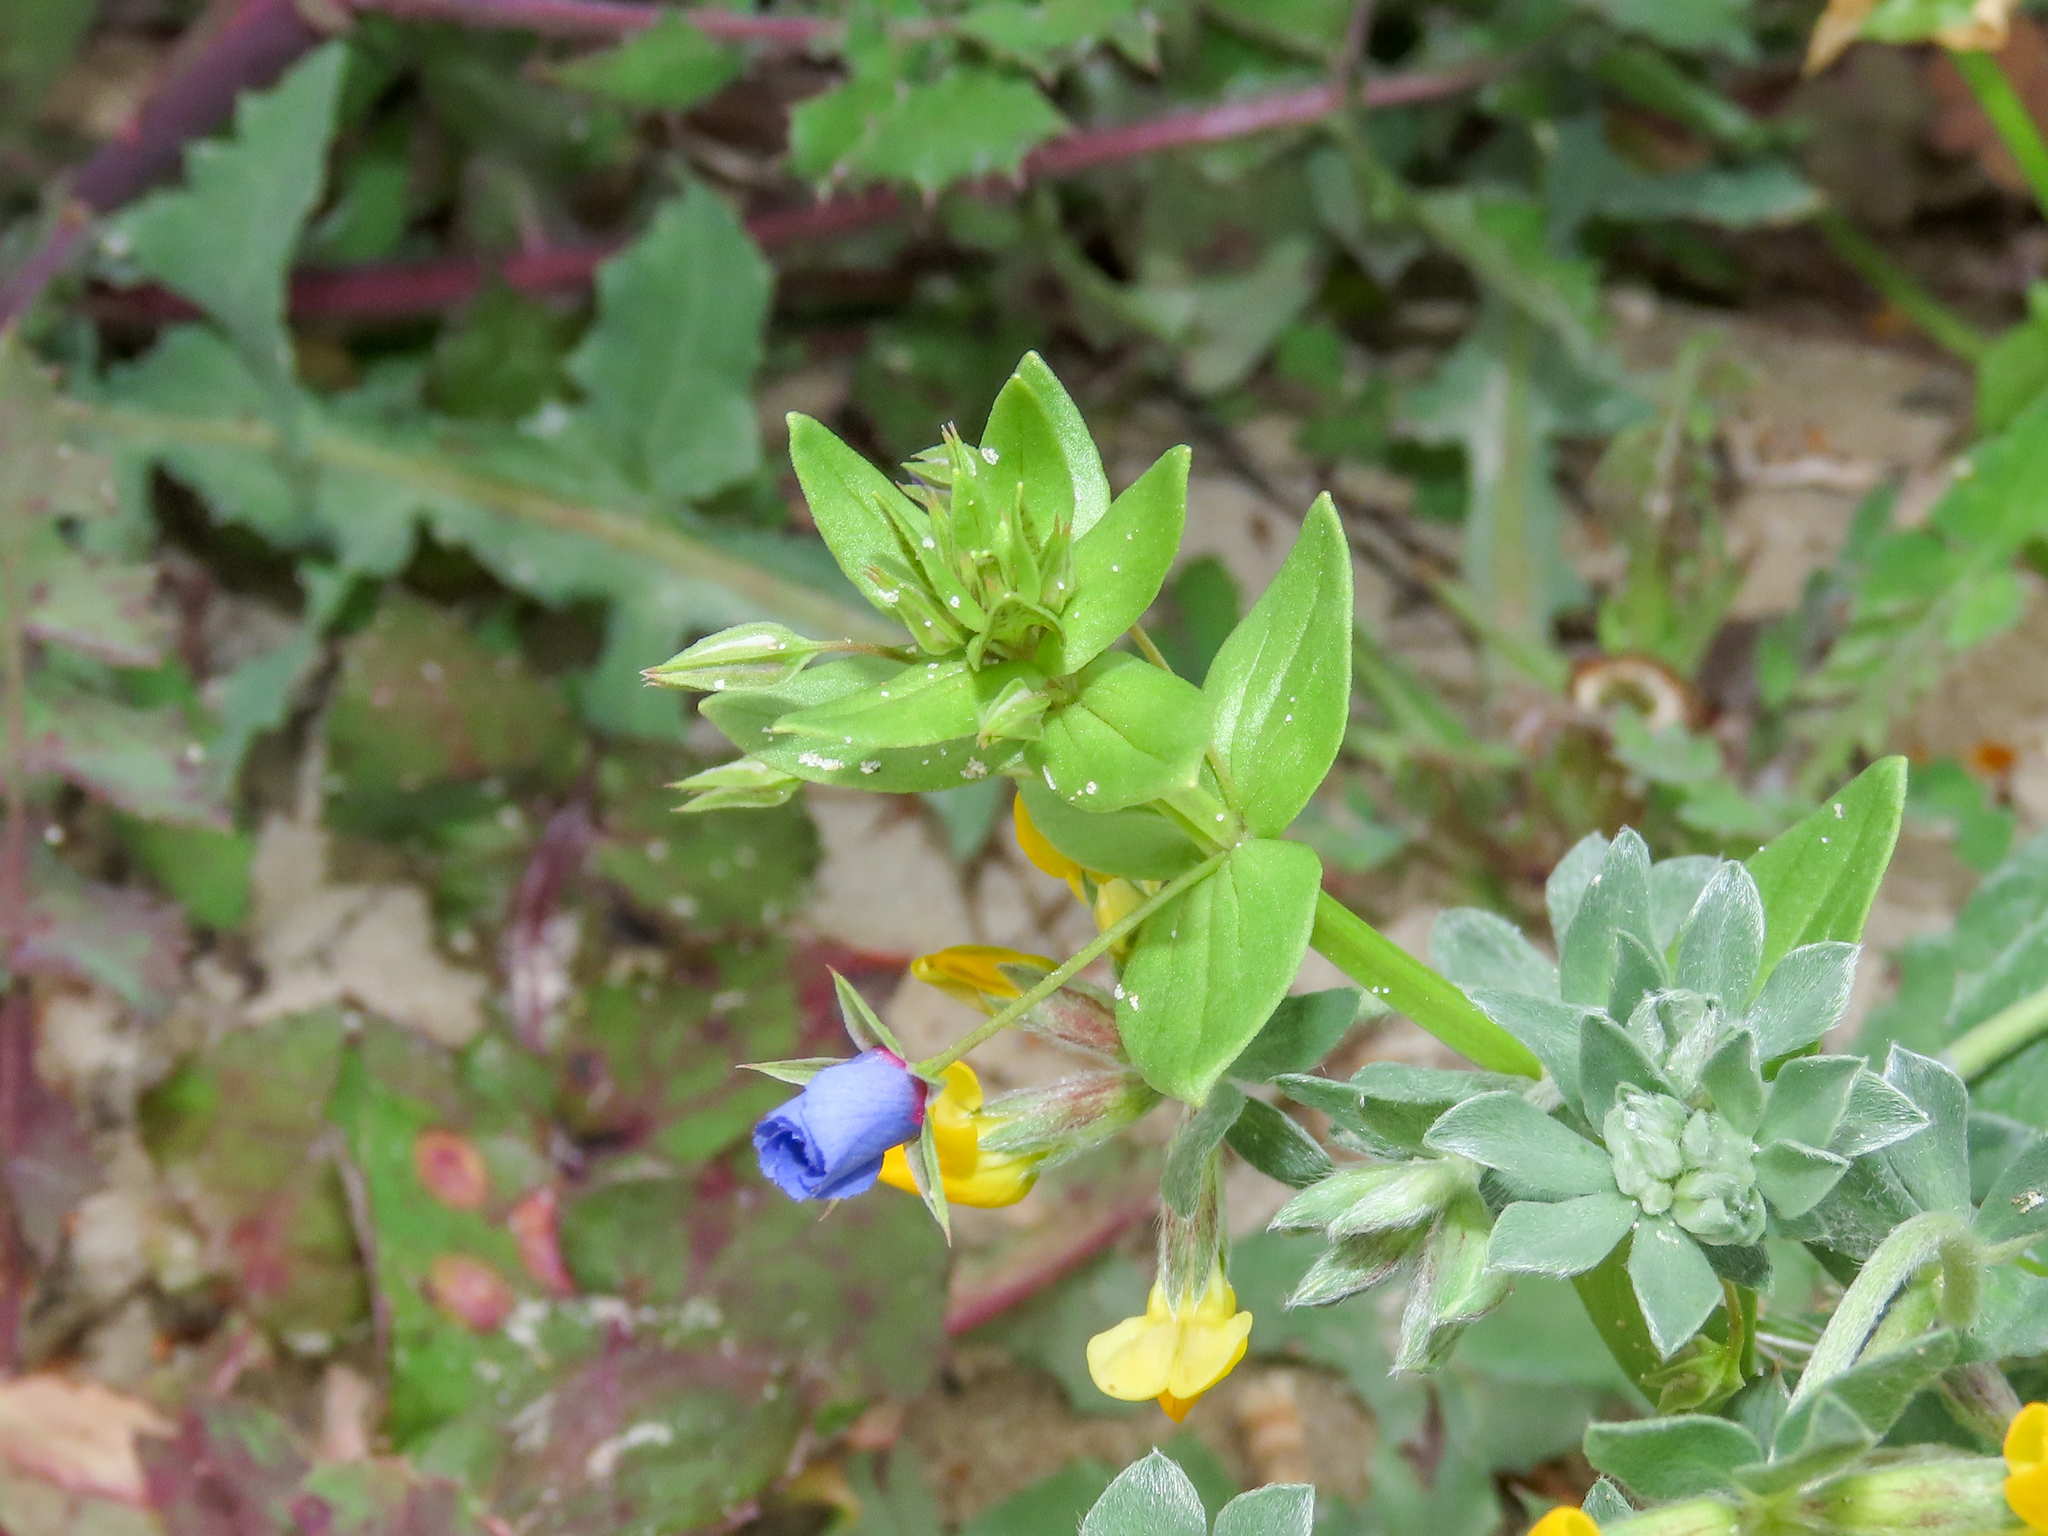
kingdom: Plantae
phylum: Tracheophyta
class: Magnoliopsida
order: Ericales
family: Primulaceae
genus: Lysimachia
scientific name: Lysimachia loeflingii
